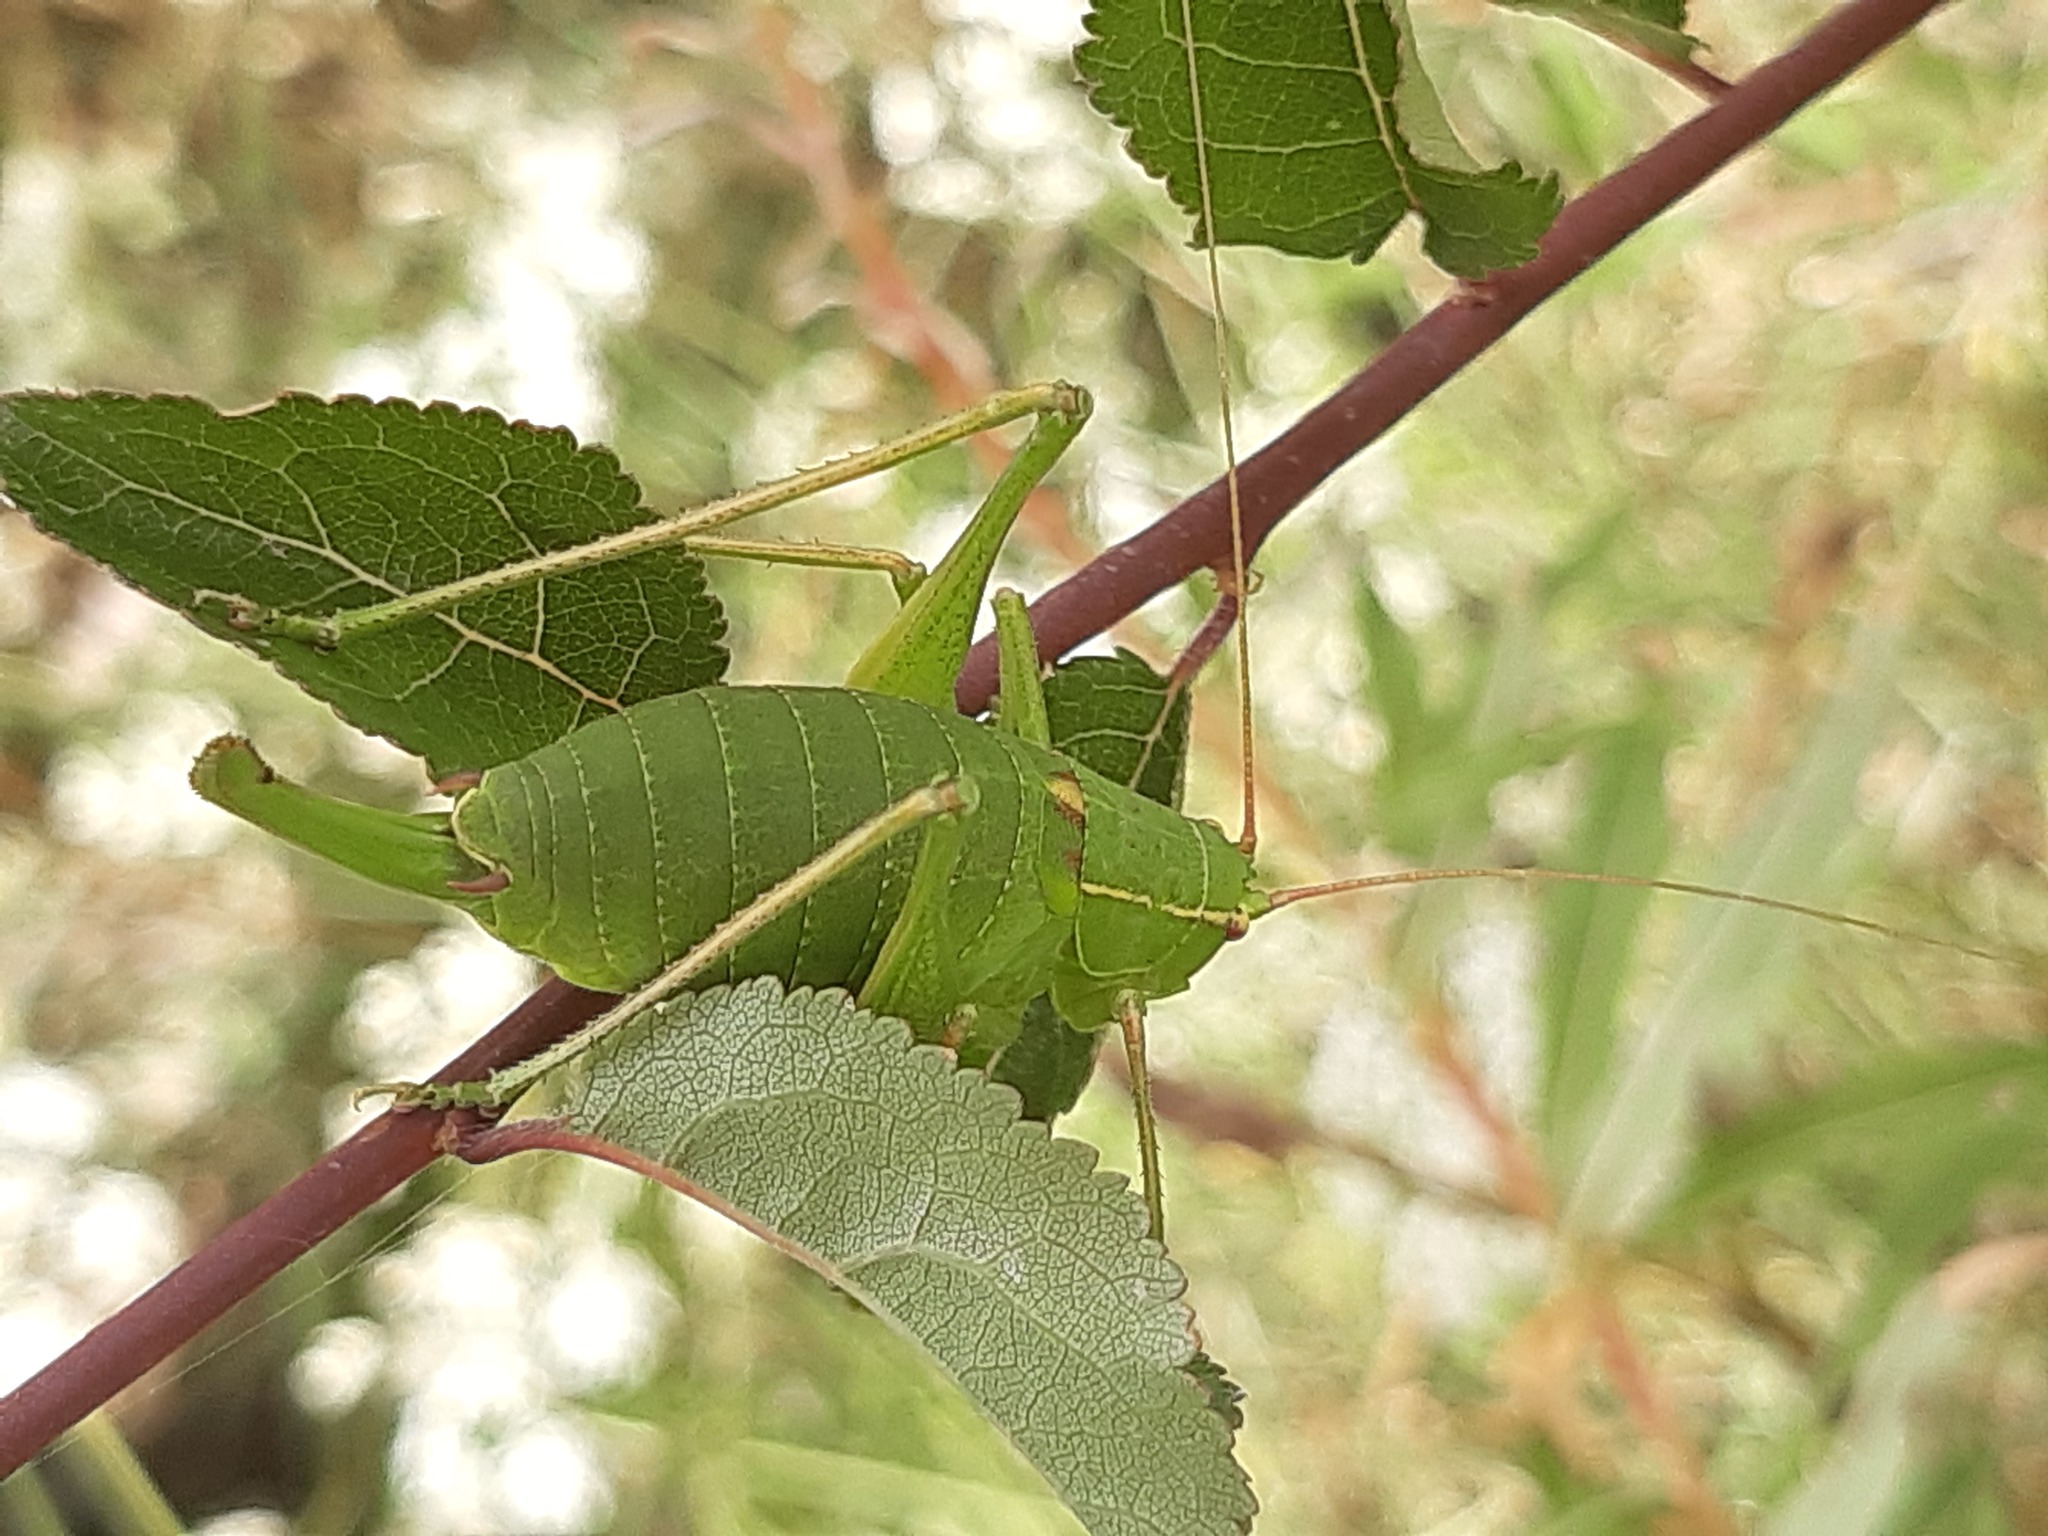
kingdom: Animalia
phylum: Arthropoda
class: Insecta
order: Orthoptera
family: Tettigoniidae
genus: Barbitistes
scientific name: Barbitistes yersini
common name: Balkan saw bush-cricket
